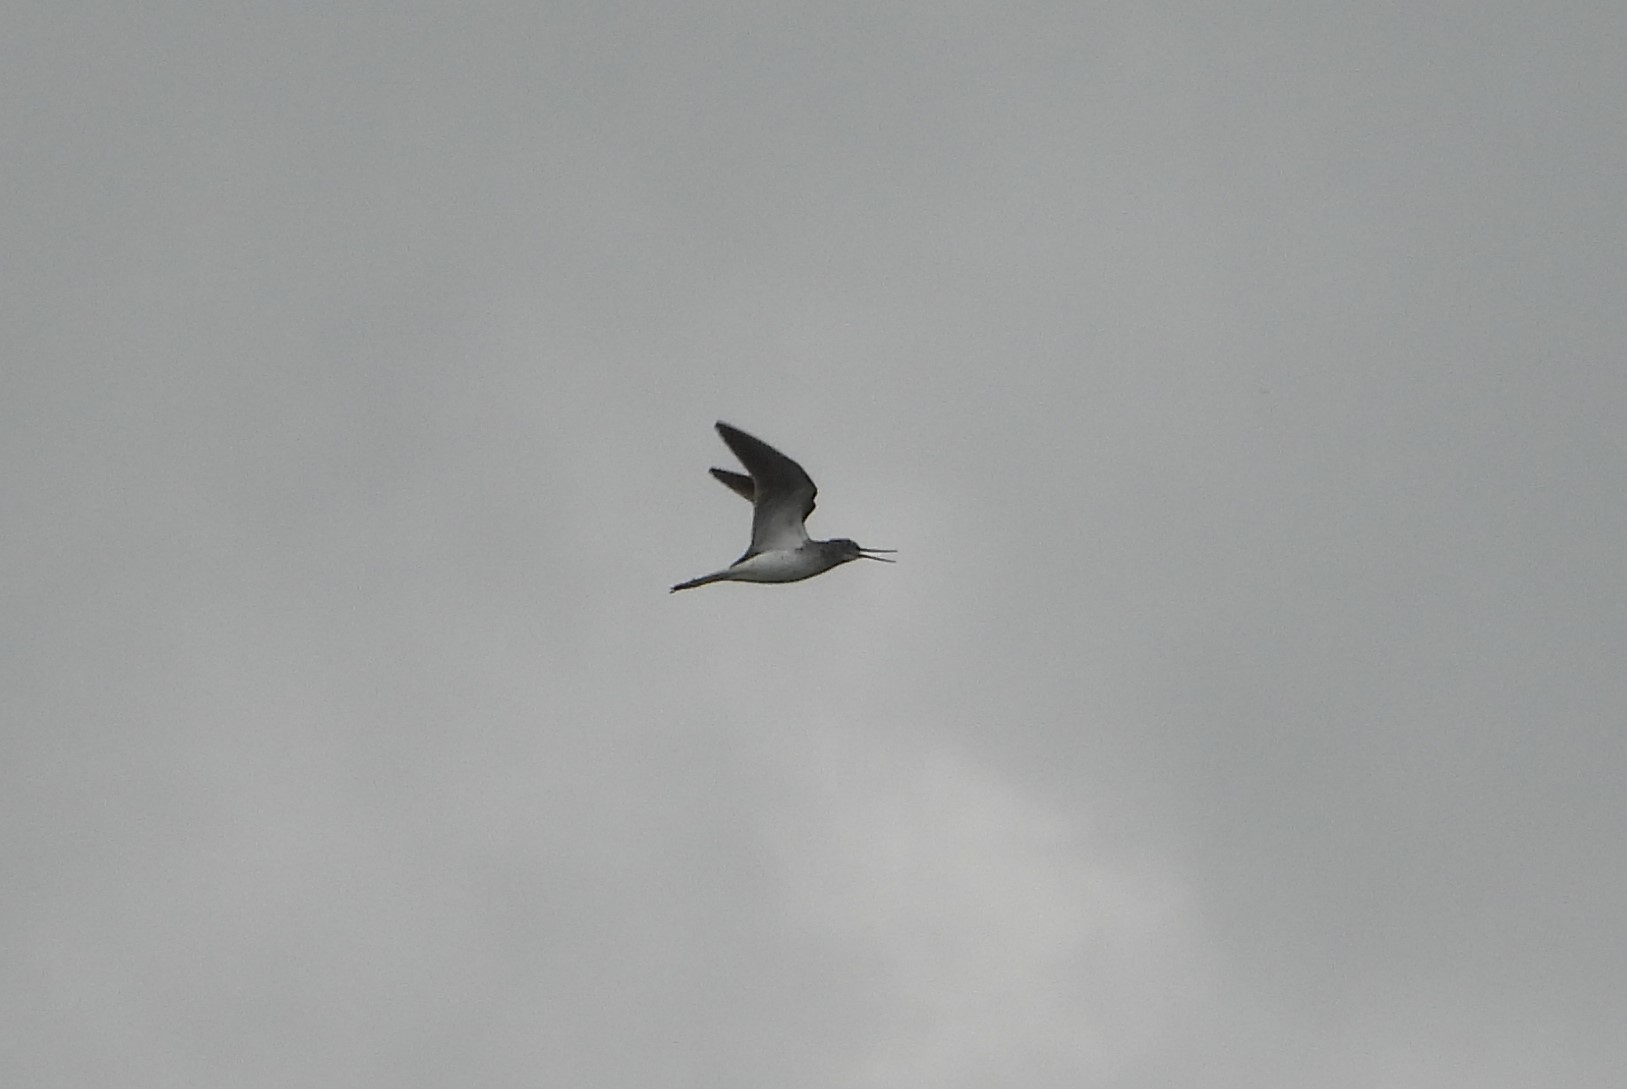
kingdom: Animalia
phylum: Chordata
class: Aves
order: Charadriiformes
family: Scolopacidae
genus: Tringa
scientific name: Tringa nebularia
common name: Common greenshank
